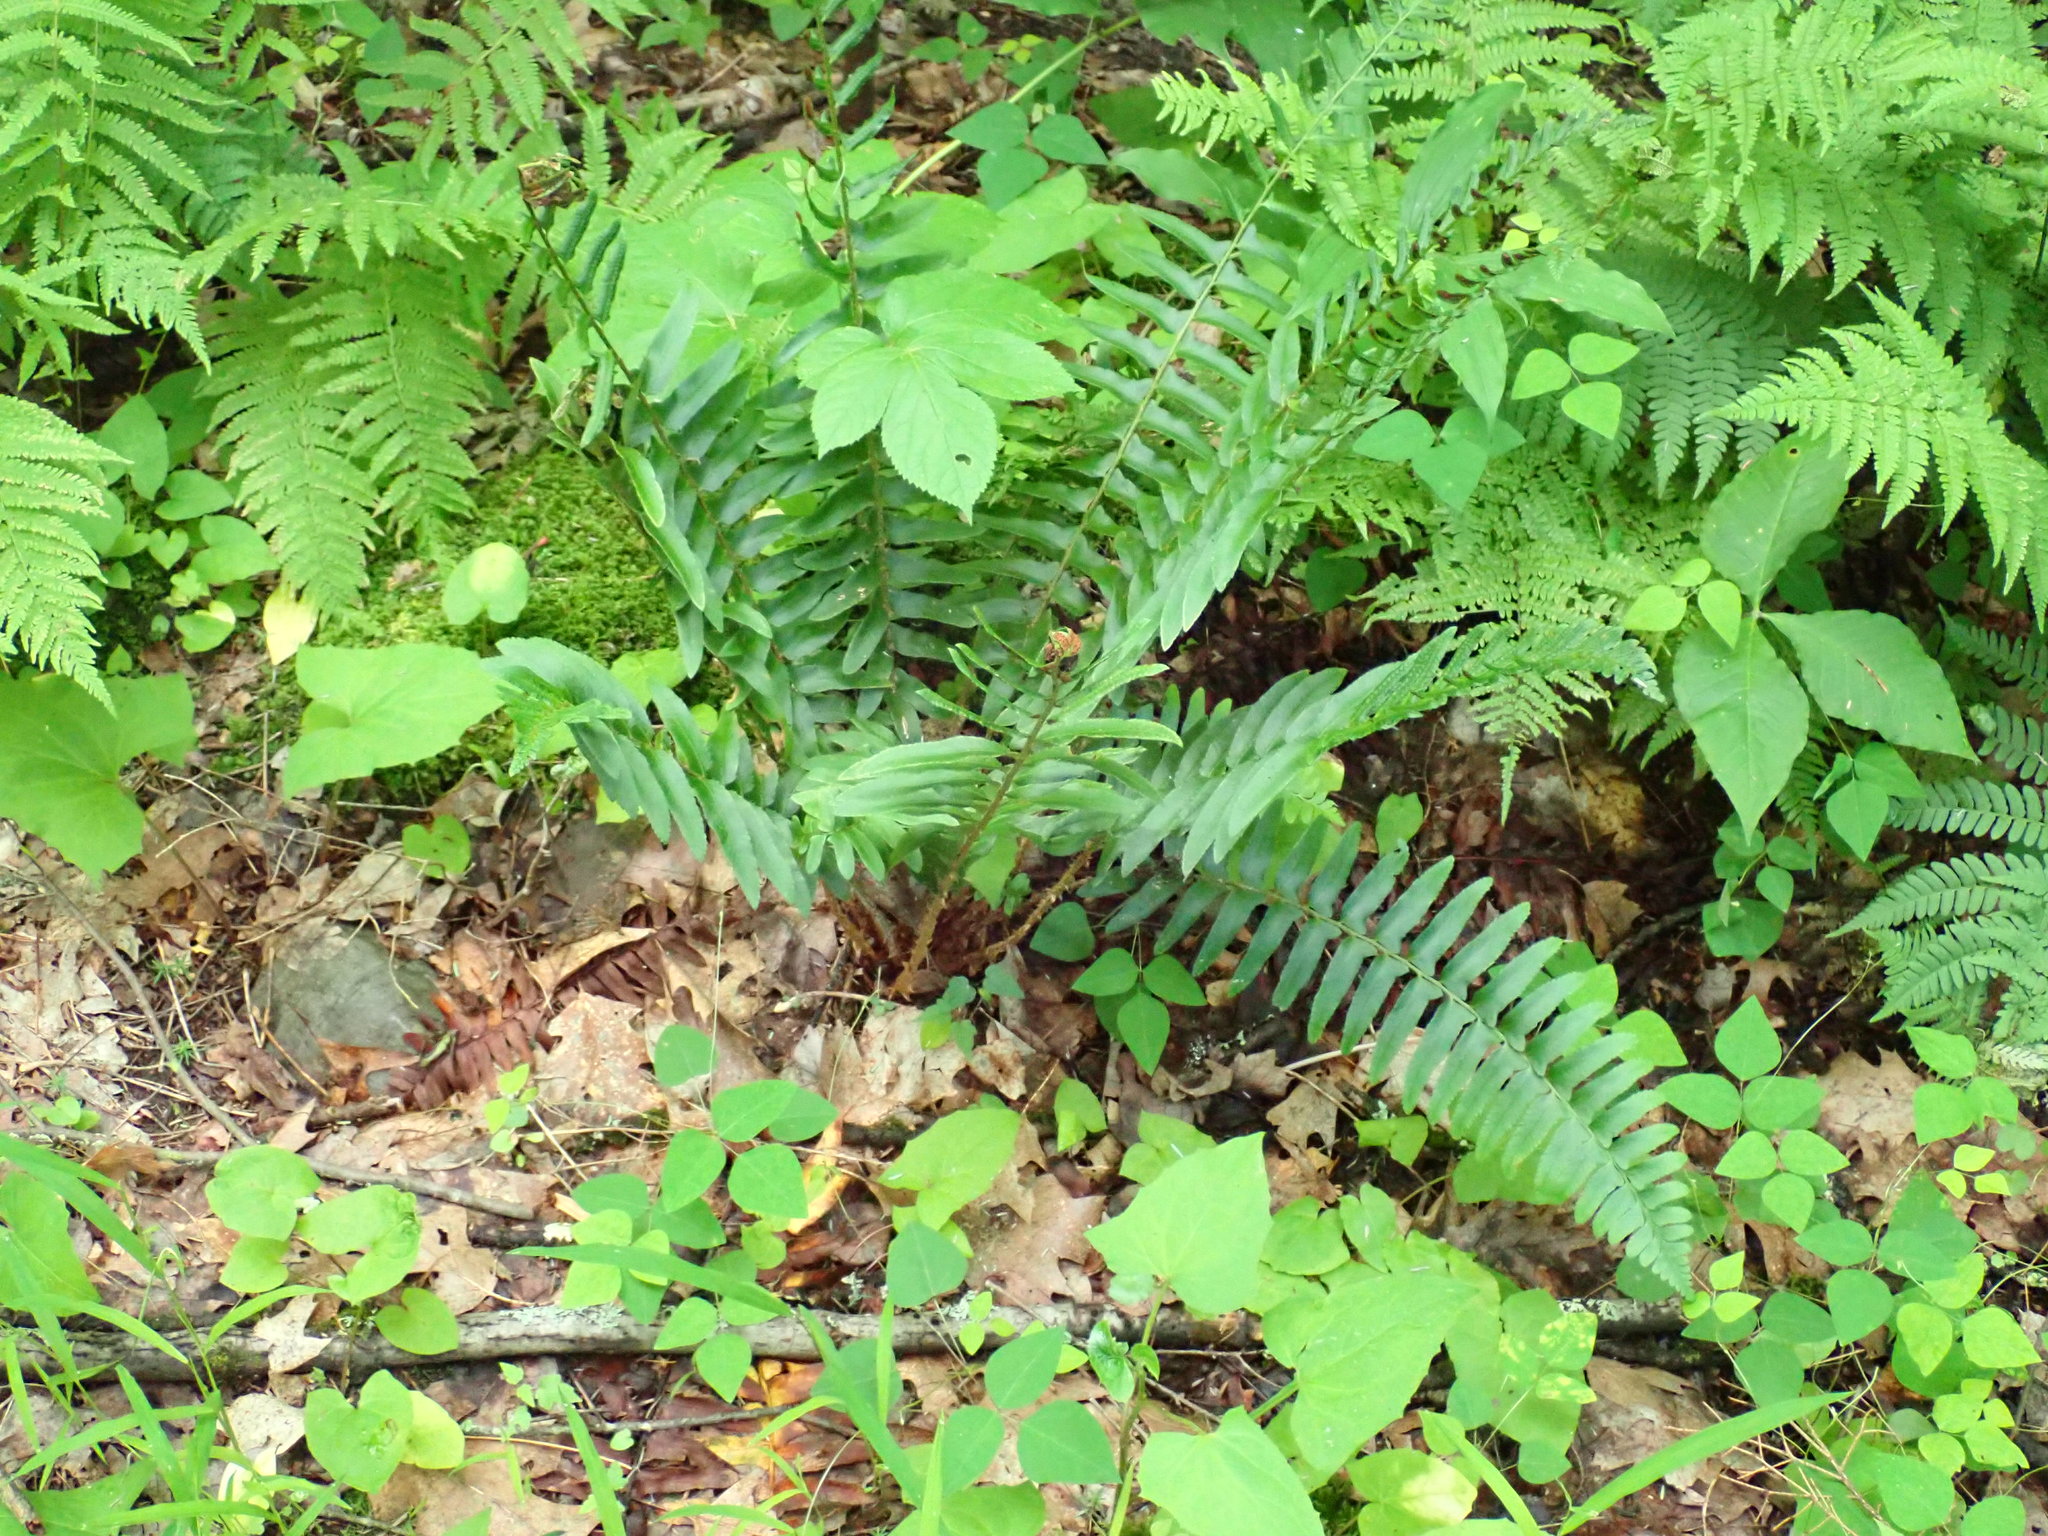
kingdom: Plantae
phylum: Tracheophyta
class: Polypodiopsida
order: Polypodiales
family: Dryopteridaceae
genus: Polystichum
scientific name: Polystichum acrostichoides
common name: Christmas fern
